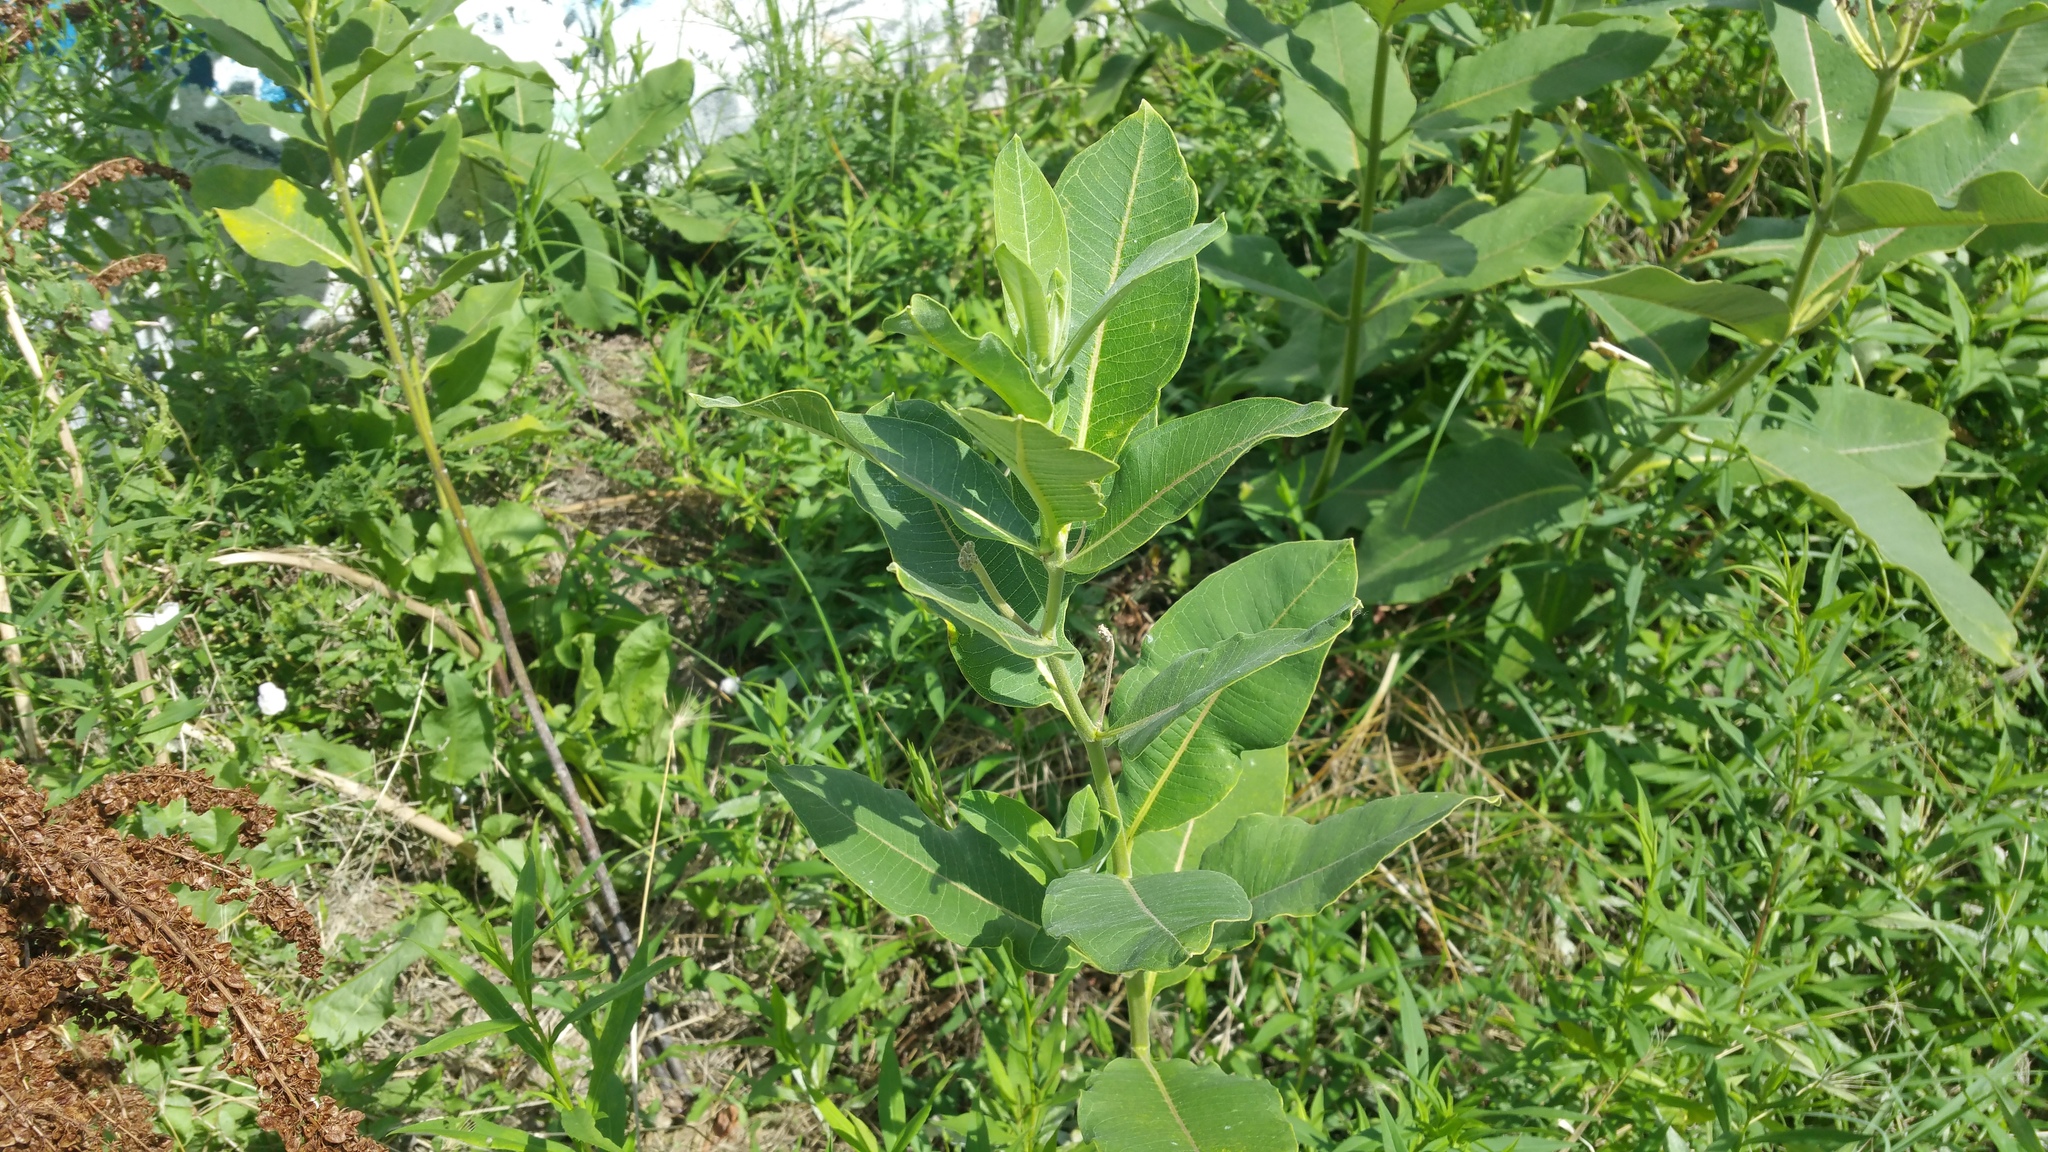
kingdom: Plantae
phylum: Tracheophyta
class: Magnoliopsida
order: Gentianales
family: Apocynaceae
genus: Asclepias
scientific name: Asclepias syriaca
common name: Common milkweed
